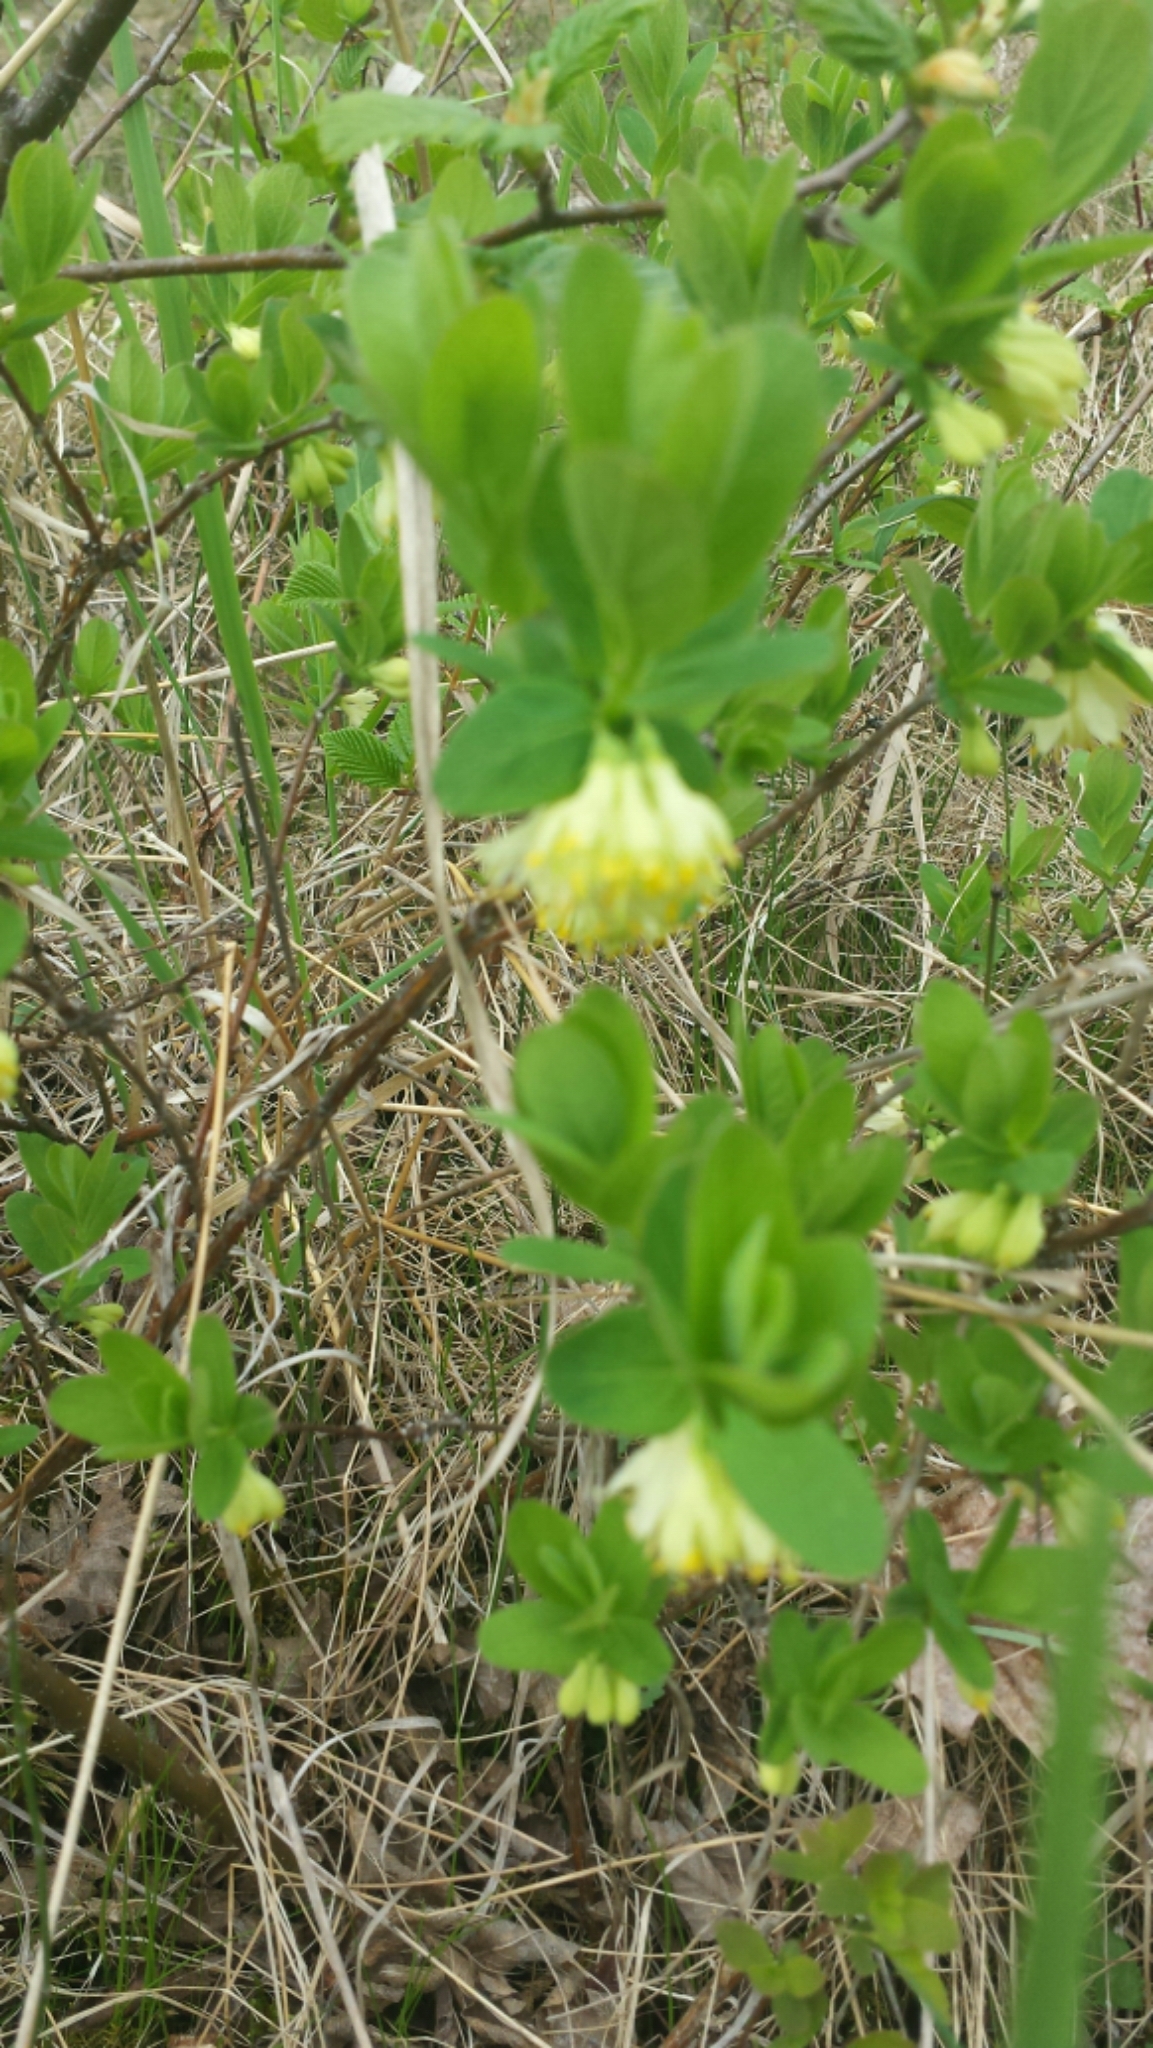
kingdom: Plantae
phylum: Tracheophyta
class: Magnoliopsida
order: Dipsacales
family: Caprifoliaceae
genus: Lonicera
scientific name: Lonicera villosa
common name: Mountain fly-honeysuckle
